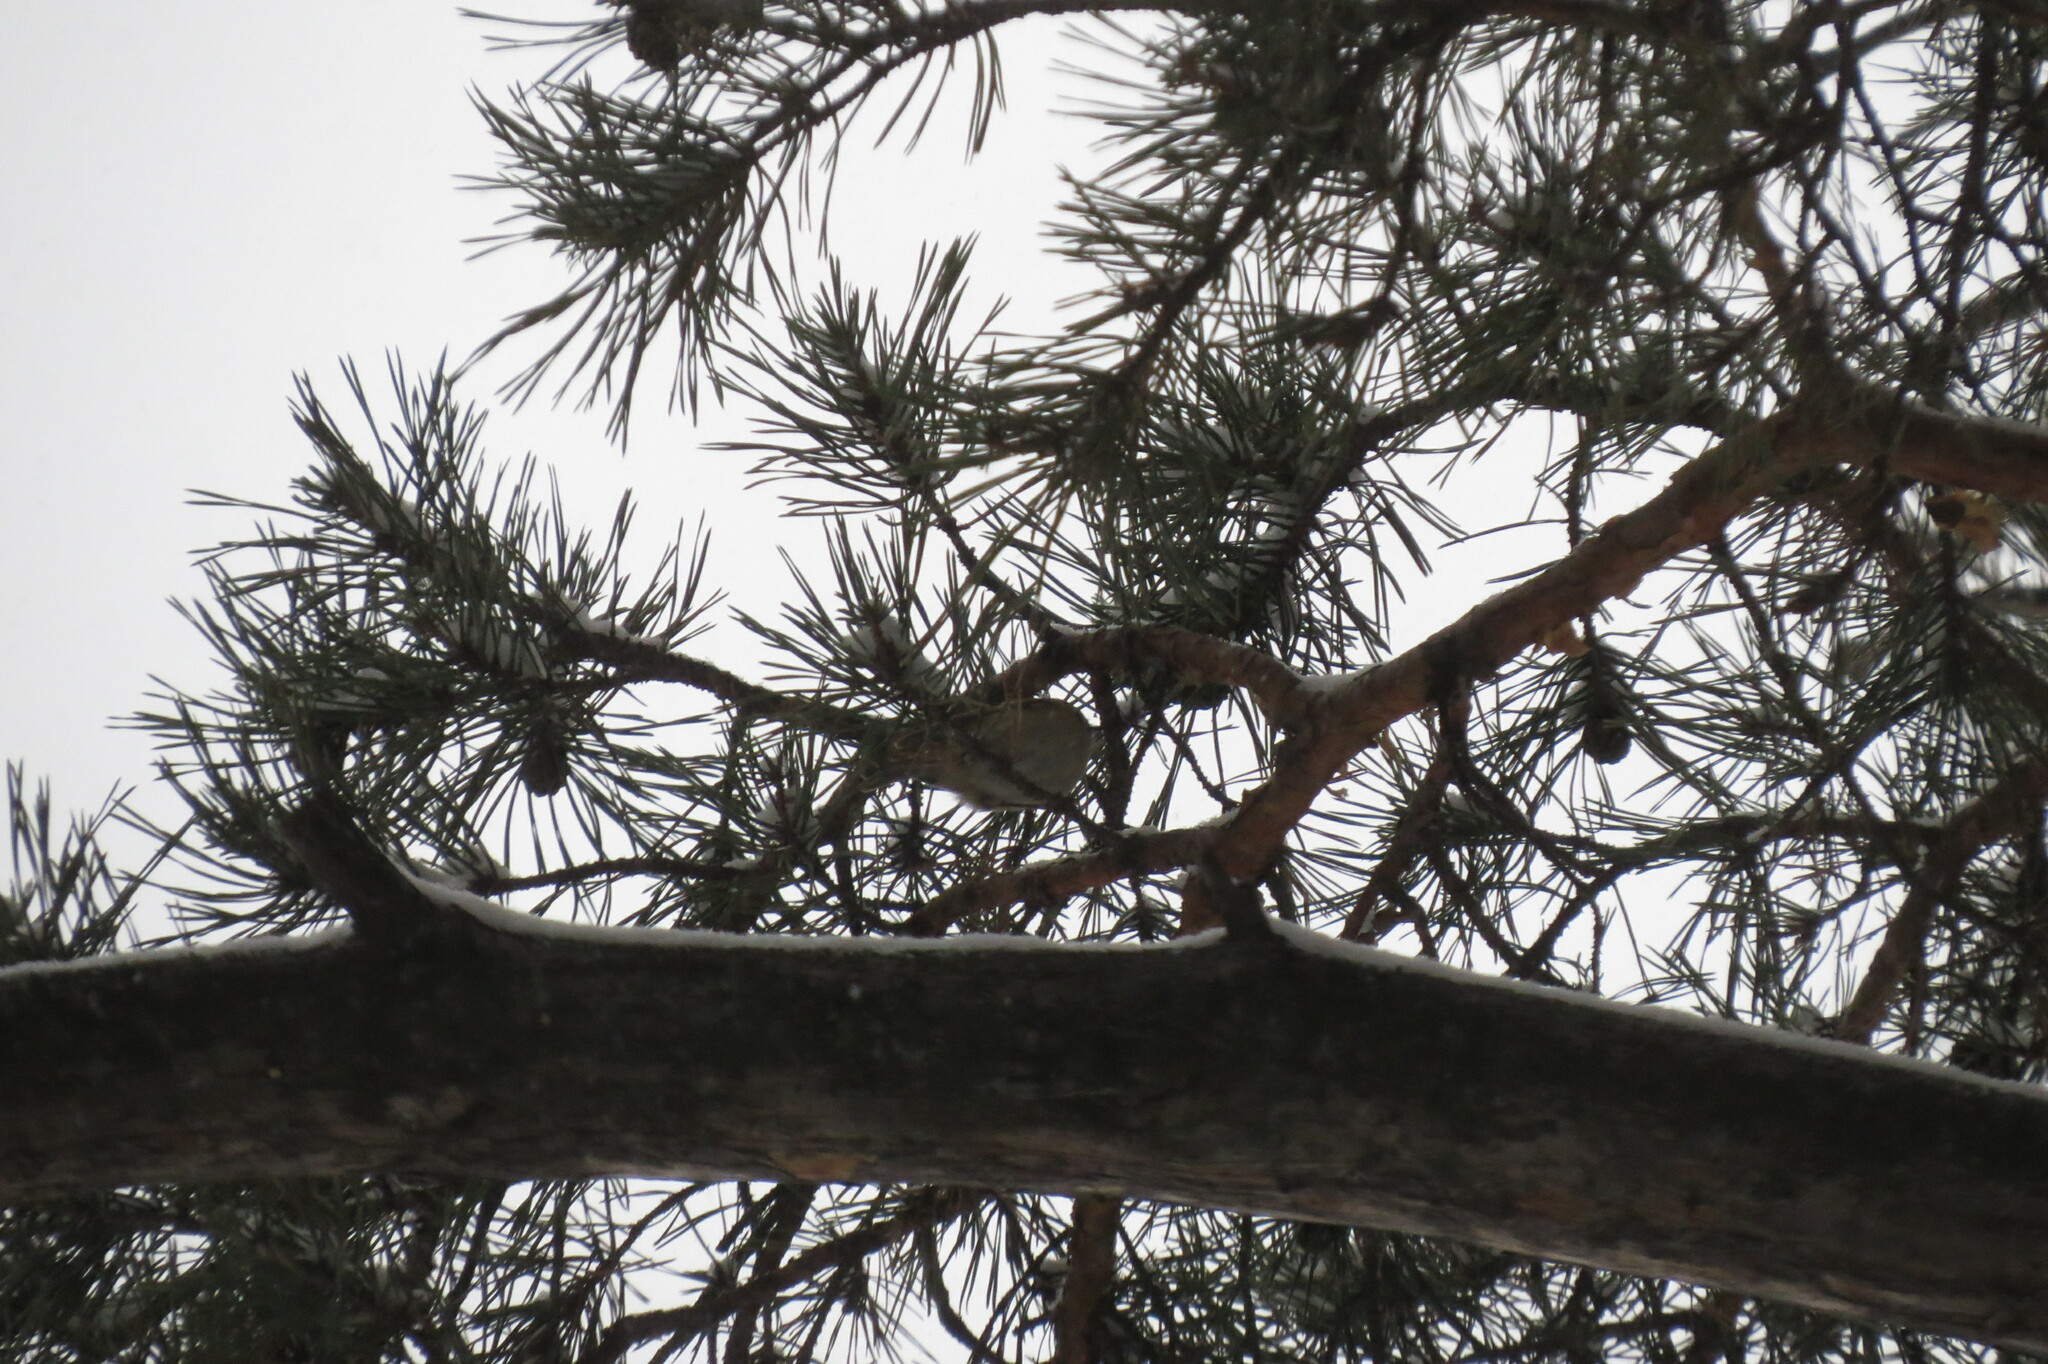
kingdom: Animalia
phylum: Chordata
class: Aves
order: Passeriformes
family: Regulidae
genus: Regulus
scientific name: Regulus regulus
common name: Goldcrest
